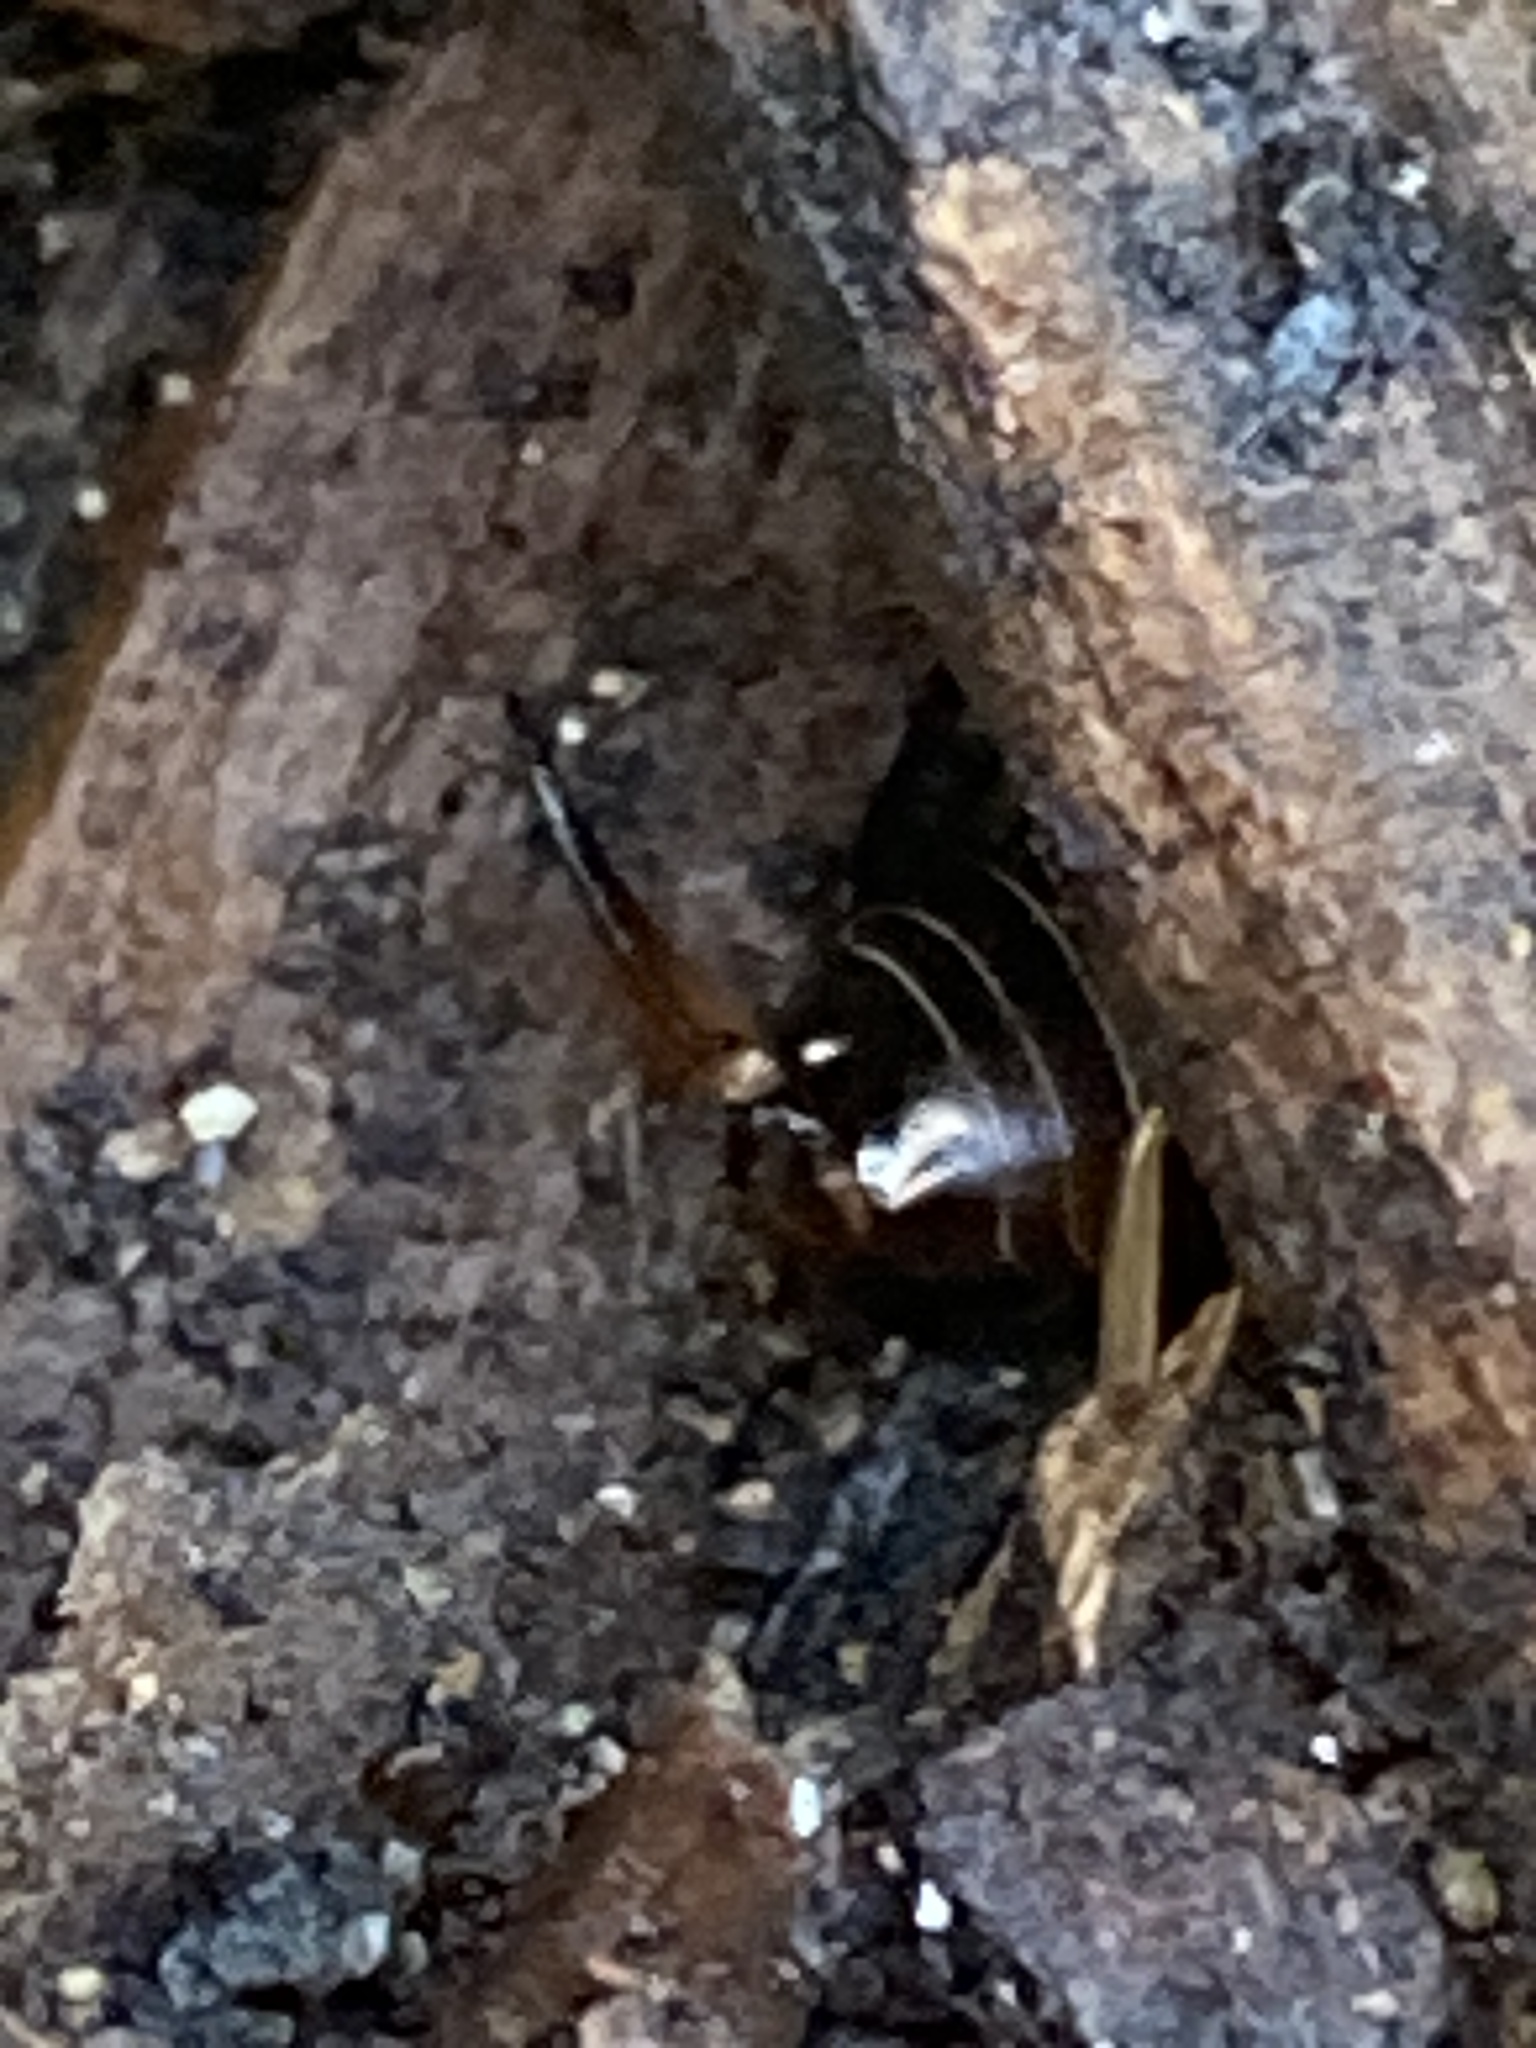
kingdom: Animalia
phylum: Arthropoda
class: Insecta
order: Dermaptera
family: Forficulidae
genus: Forficula
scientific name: Forficula
